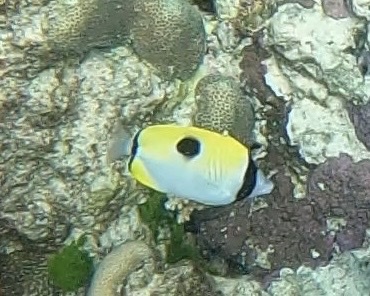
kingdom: Animalia
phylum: Chordata
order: Perciformes
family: Chaetodontidae
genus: Chaetodon
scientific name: Chaetodon unimaculatus
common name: Teardrop butterflyfish
